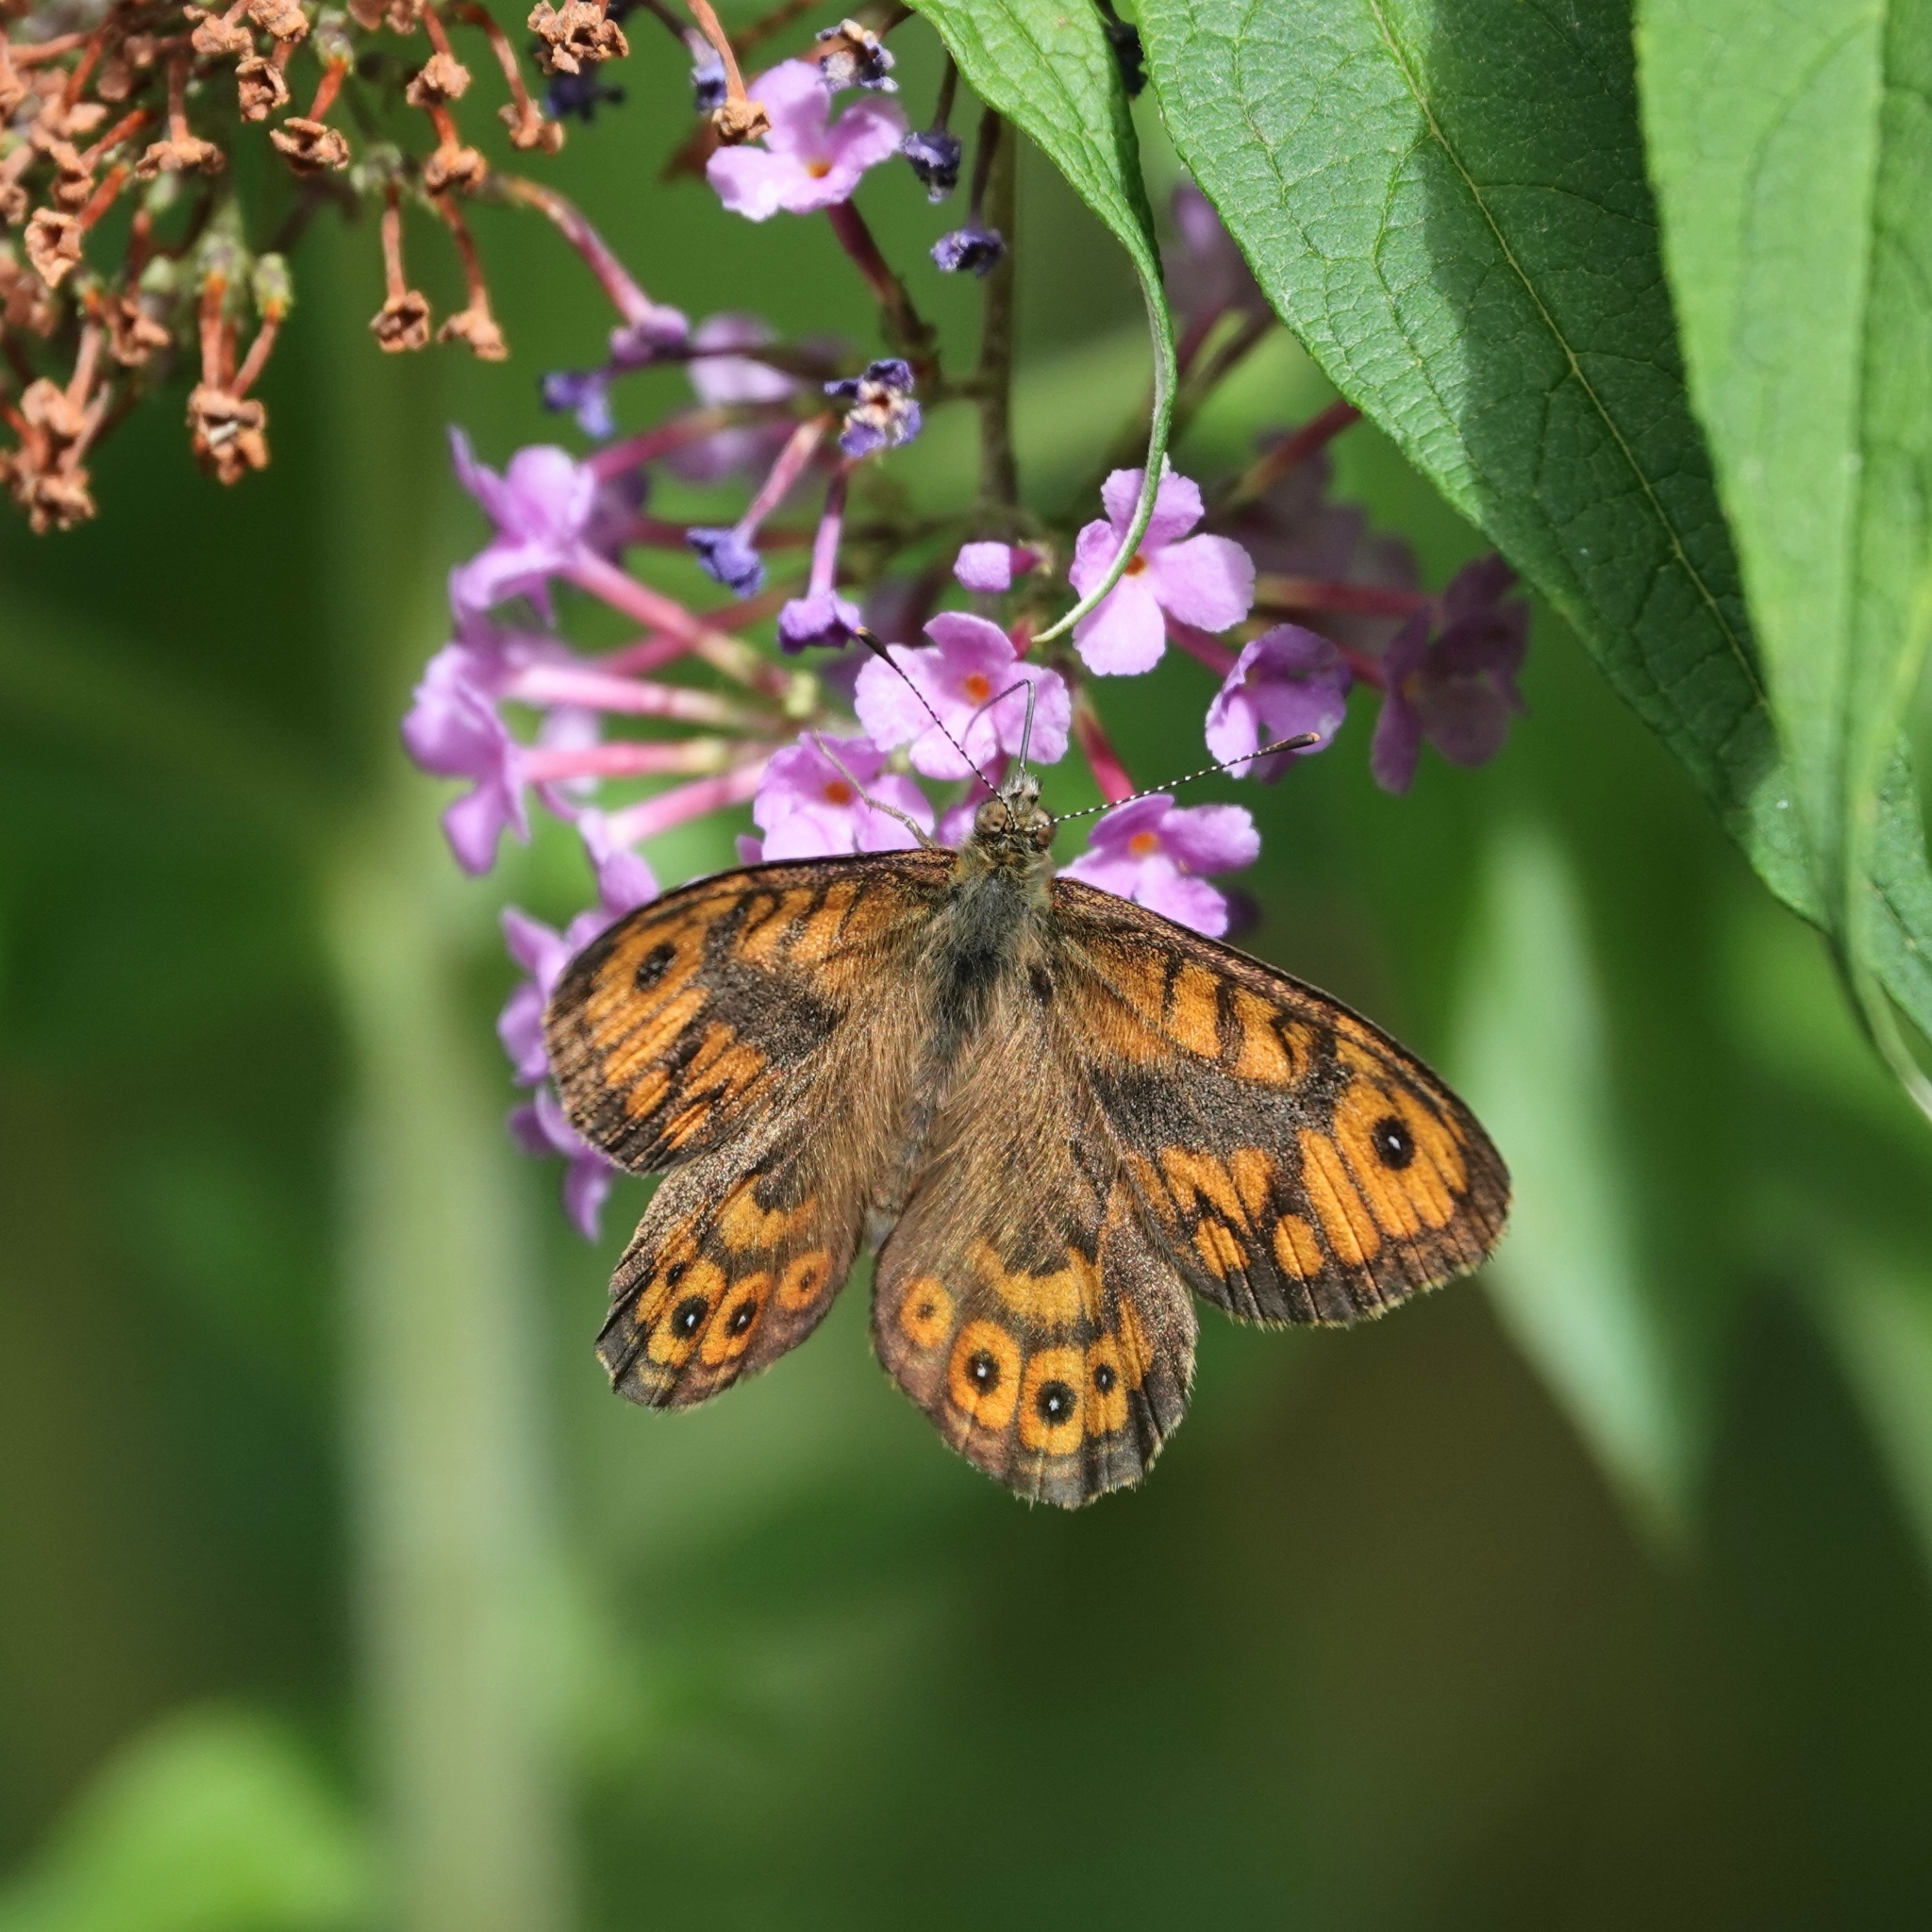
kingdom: Animalia
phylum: Arthropoda
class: Insecta
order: Lepidoptera
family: Nymphalidae
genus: Pararge
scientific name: Pararge Lasiommata megera
